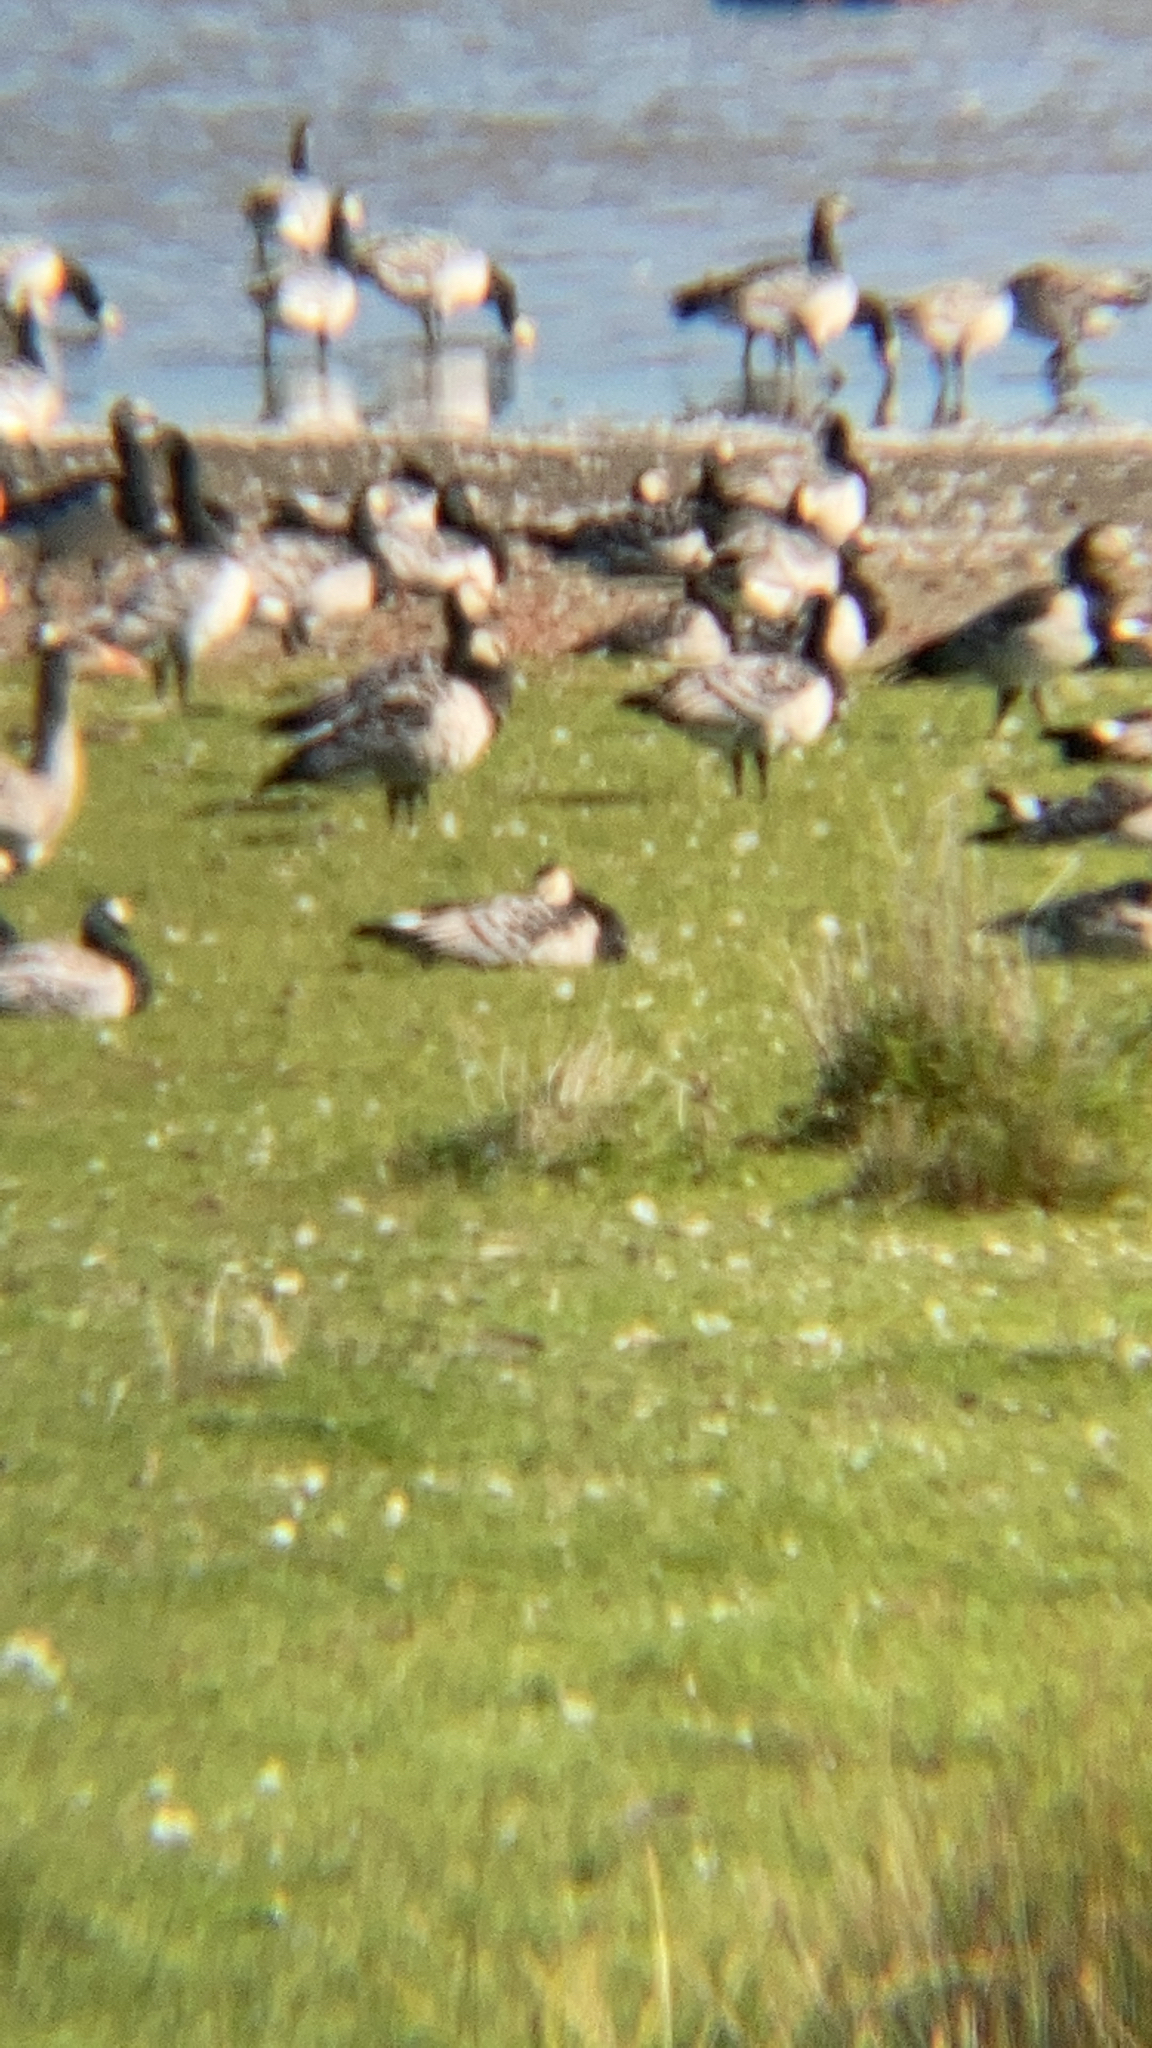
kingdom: Animalia
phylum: Chordata
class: Aves
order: Anseriformes
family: Anatidae
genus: Branta
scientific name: Branta leucopsis
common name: Barnacle goose
